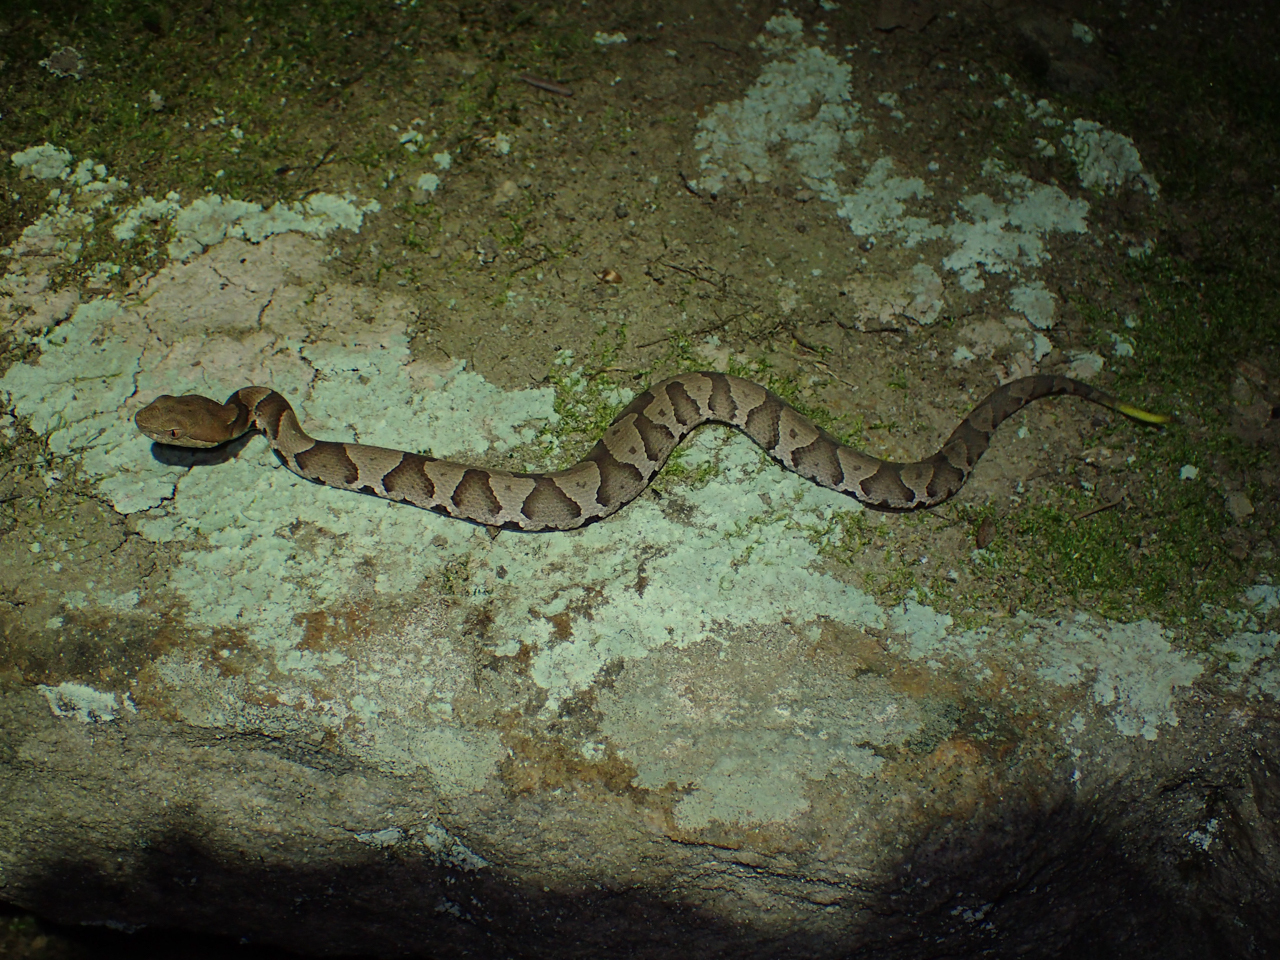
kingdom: Animalia
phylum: Chordata
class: Squamata
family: Viperidae
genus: Agkistrodon
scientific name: Agkistrodon contortrix
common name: Northern copperhead
